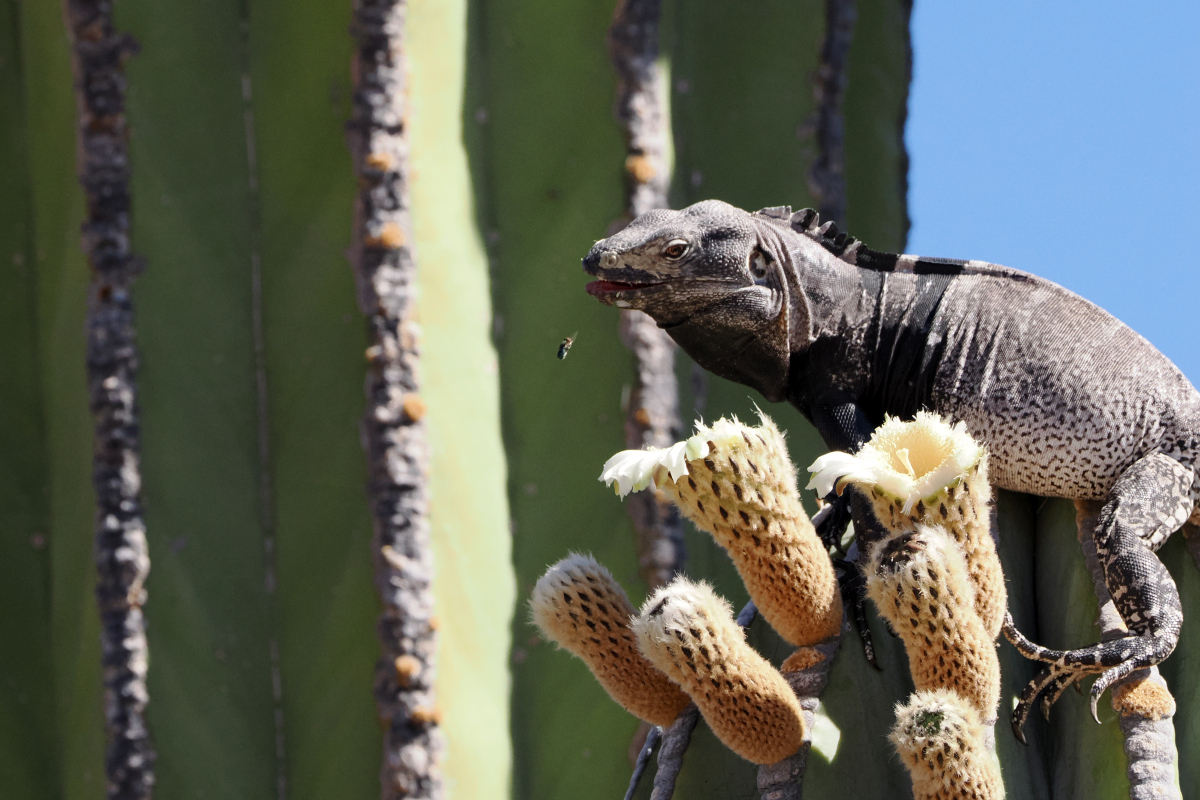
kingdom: Animalia
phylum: Chordata
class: Squamata
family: Iguanidae
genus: Ctenosaura
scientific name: Ctenosaura conspicuosa
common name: San esteban spinytail iguana
